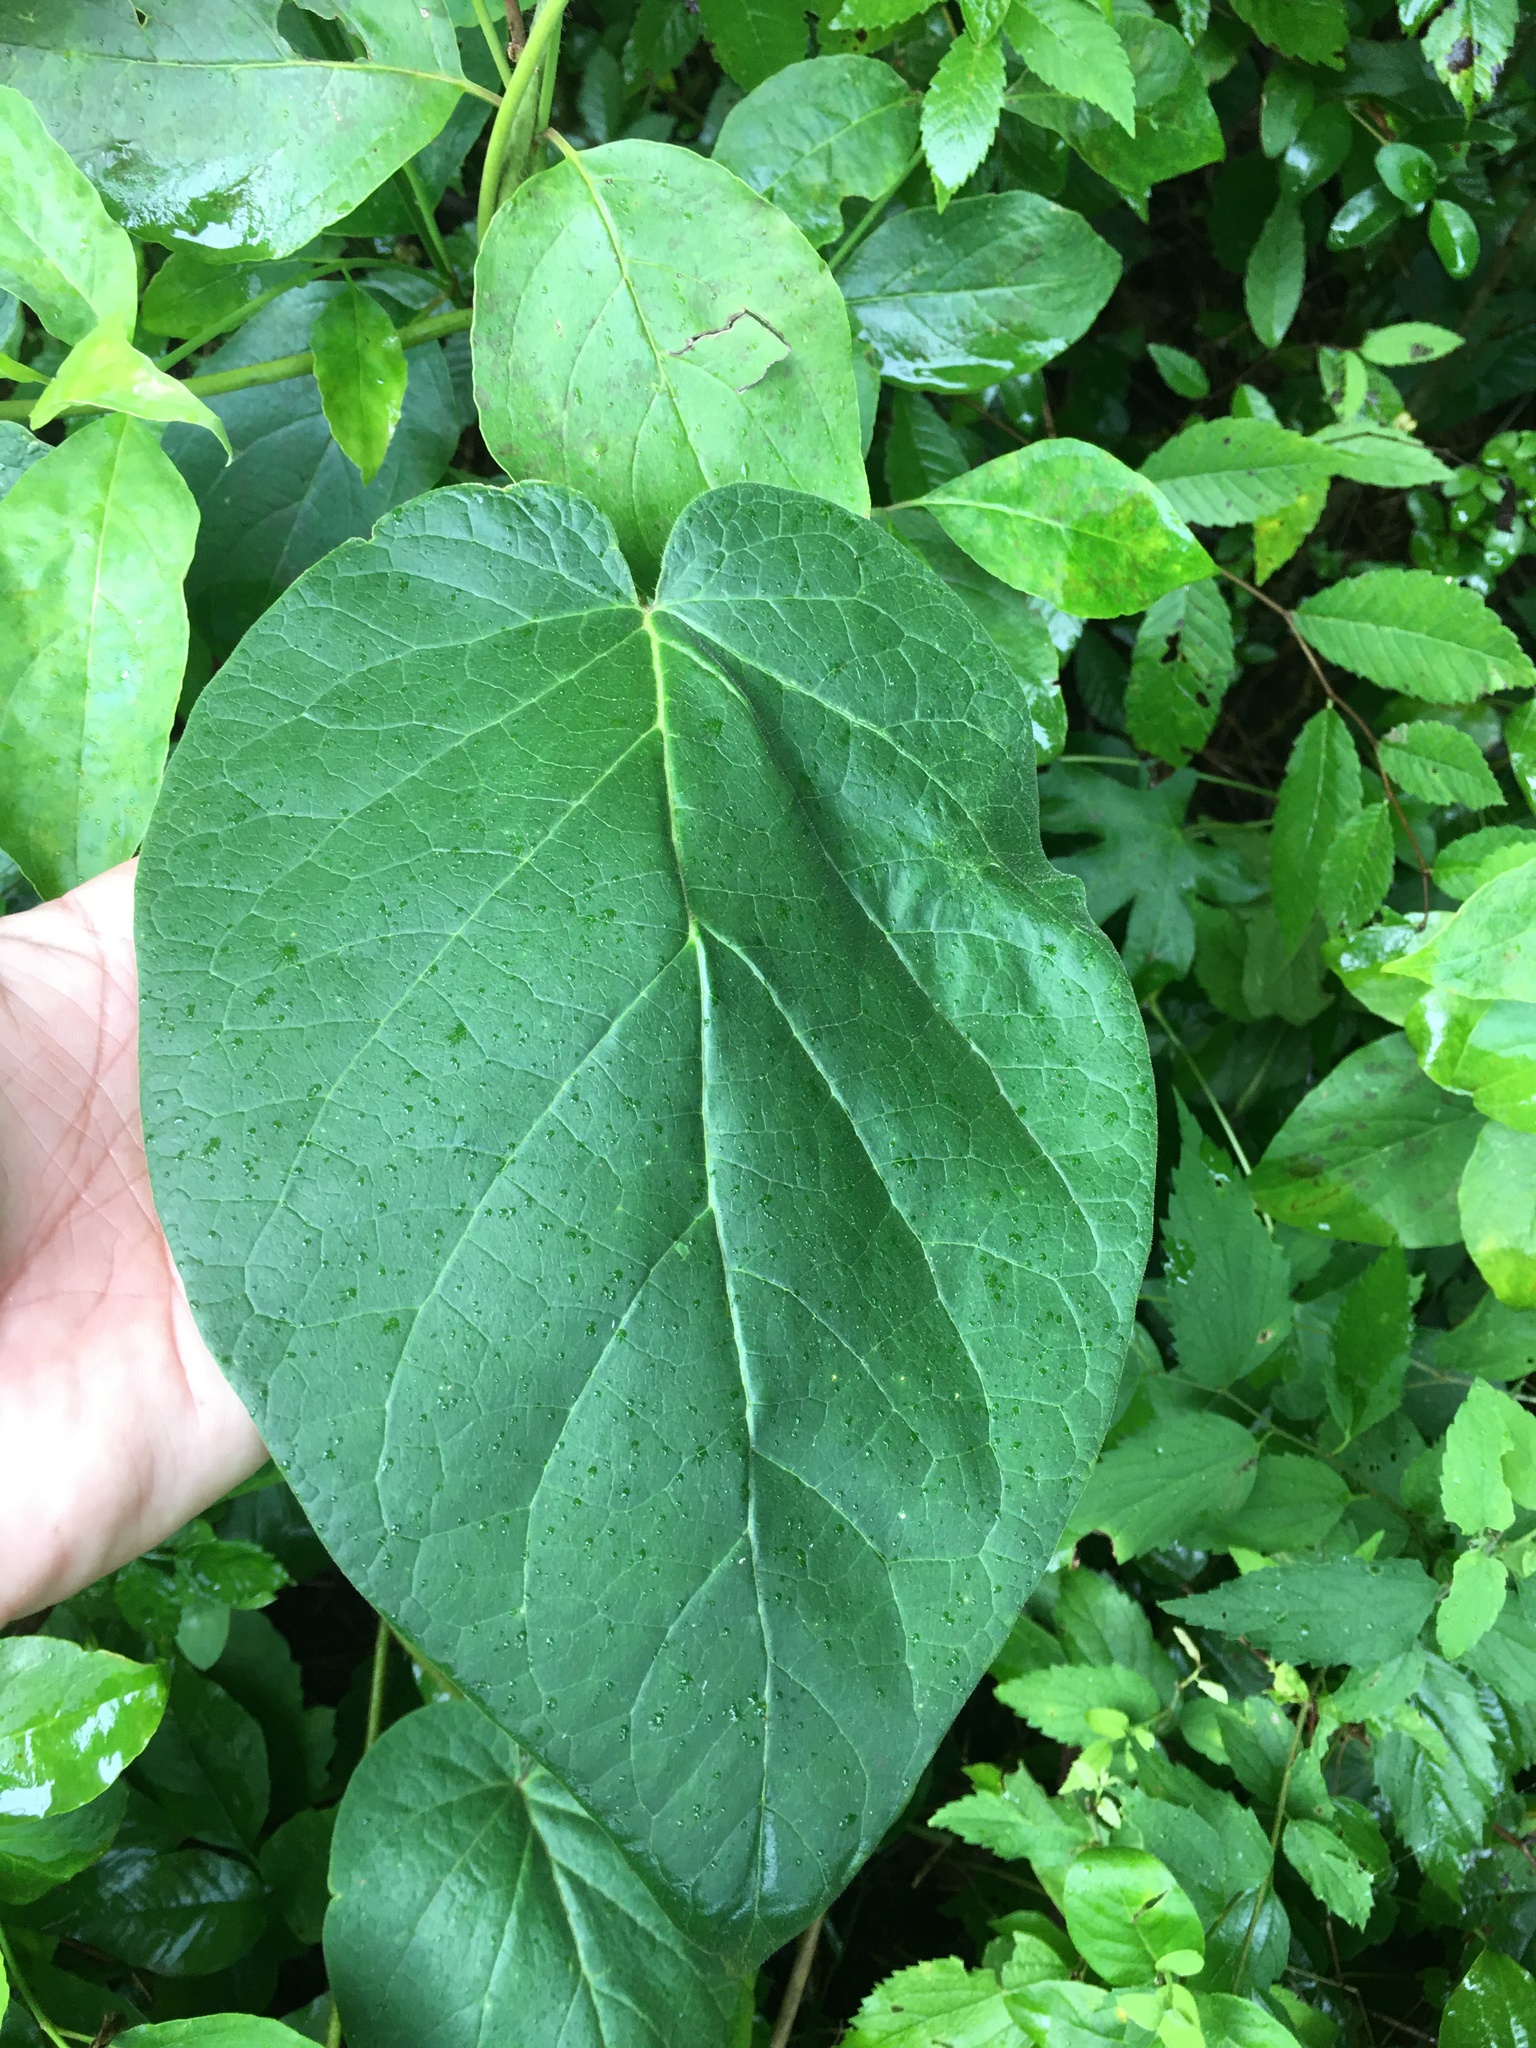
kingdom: Plantae
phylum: Tracheophyta
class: Magnoliopsida
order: Gentianales
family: Apocynaceae
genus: Matelea
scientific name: Matelea carolinensis
